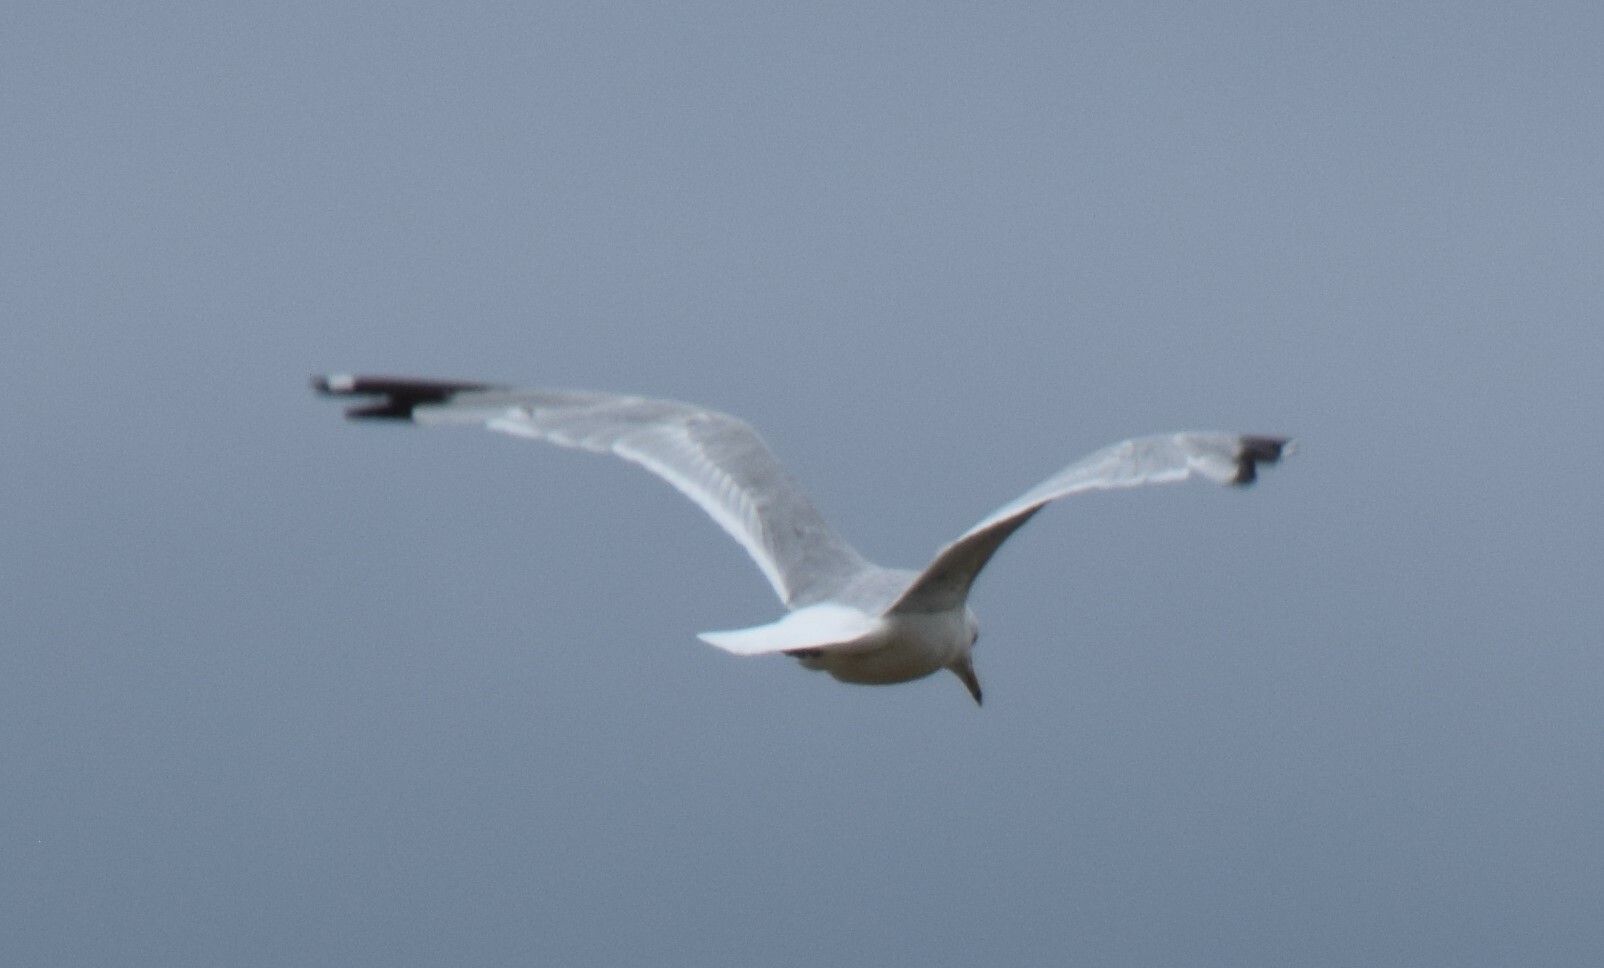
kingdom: Animalia
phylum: Chordata
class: Aves
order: Charadriiformes
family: Laridae
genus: Larus
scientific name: Larus delawarensis
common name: Ring-billed gull
